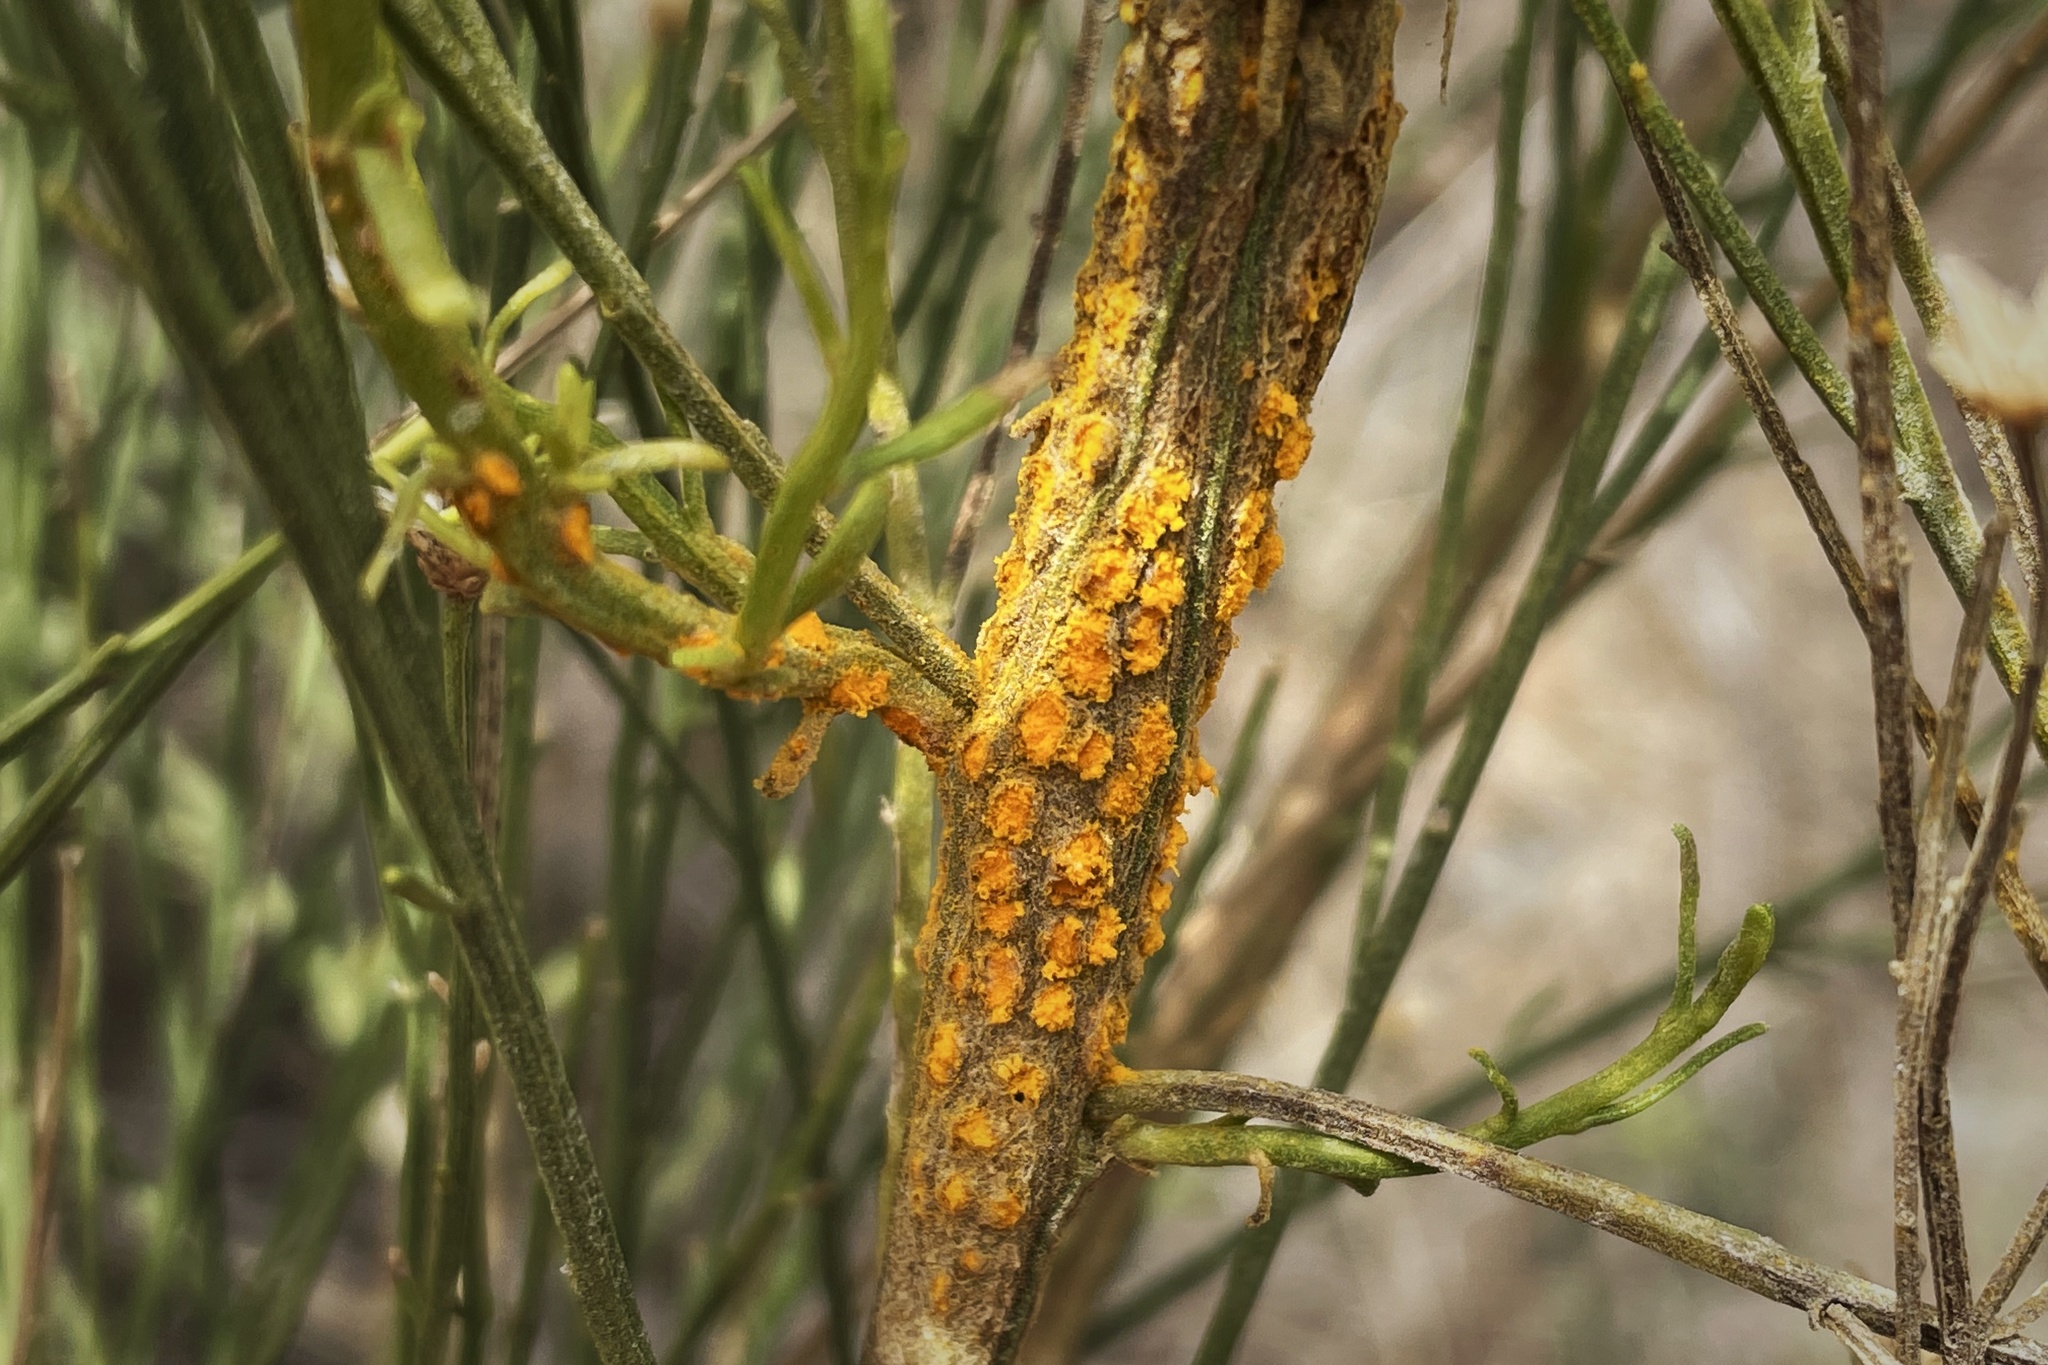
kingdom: Fungi
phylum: Basidiomycota
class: Pucciniomycetes
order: Pucciniales
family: Pucciniaceae
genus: Eriosporangium
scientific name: Eriosporangium evadens
